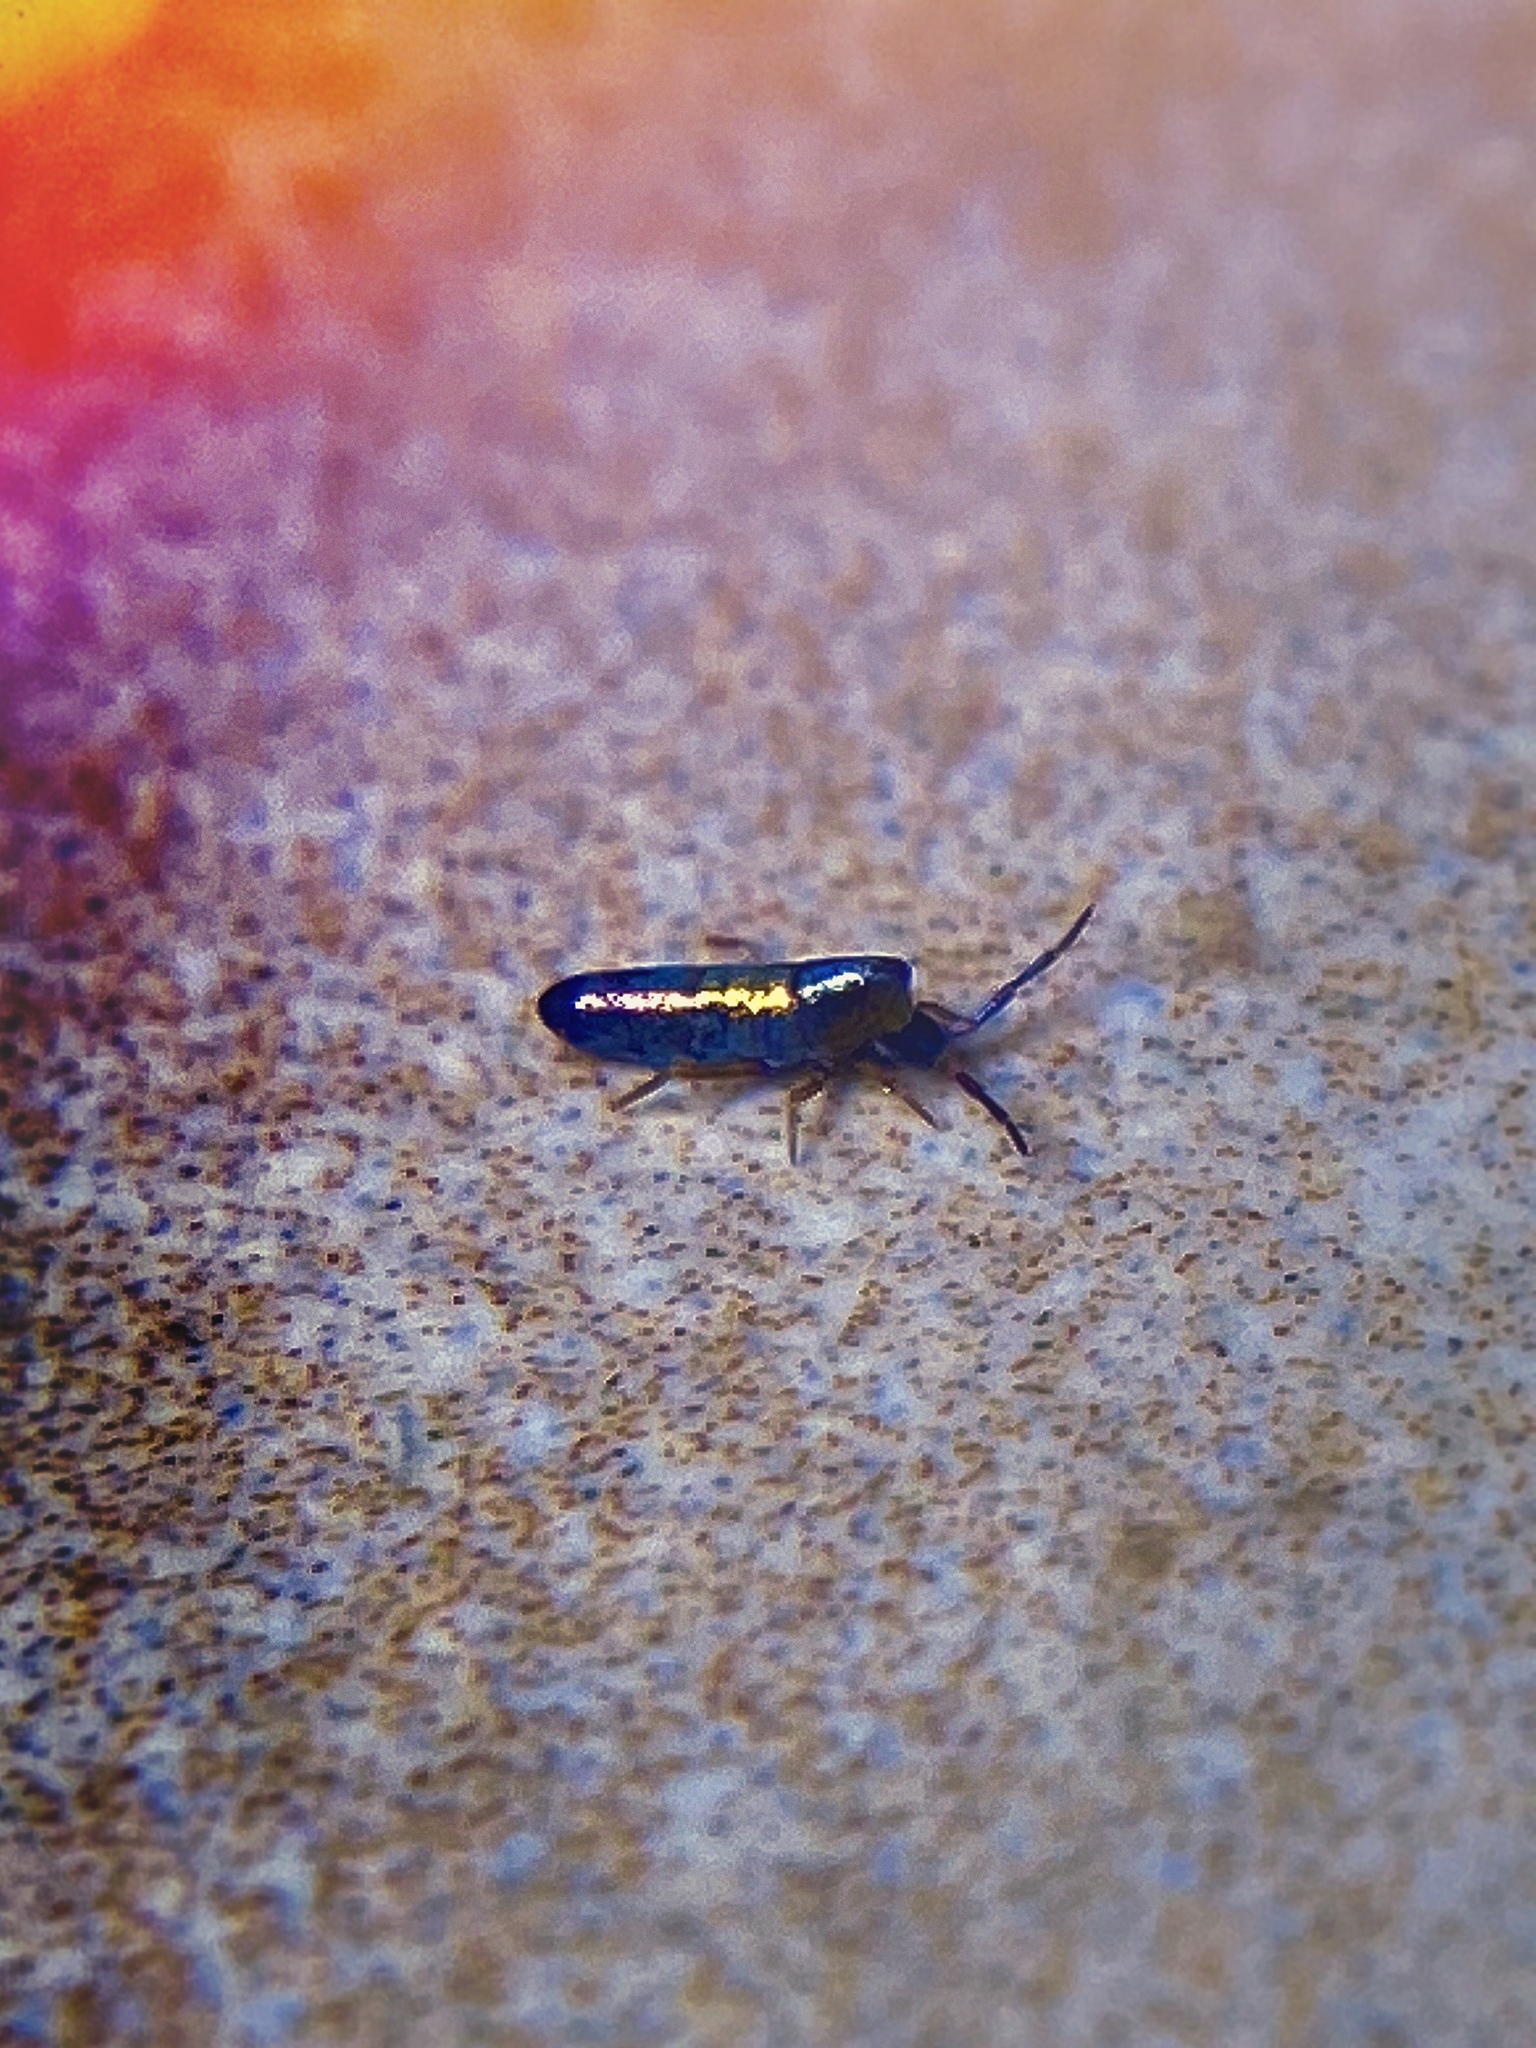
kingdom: Animalia
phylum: Arthropoda
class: Collembola
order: Entomobryomorpha
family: Entomobryidae
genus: Lepidocyrtus
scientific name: Lepidocyrtus paradoxus
